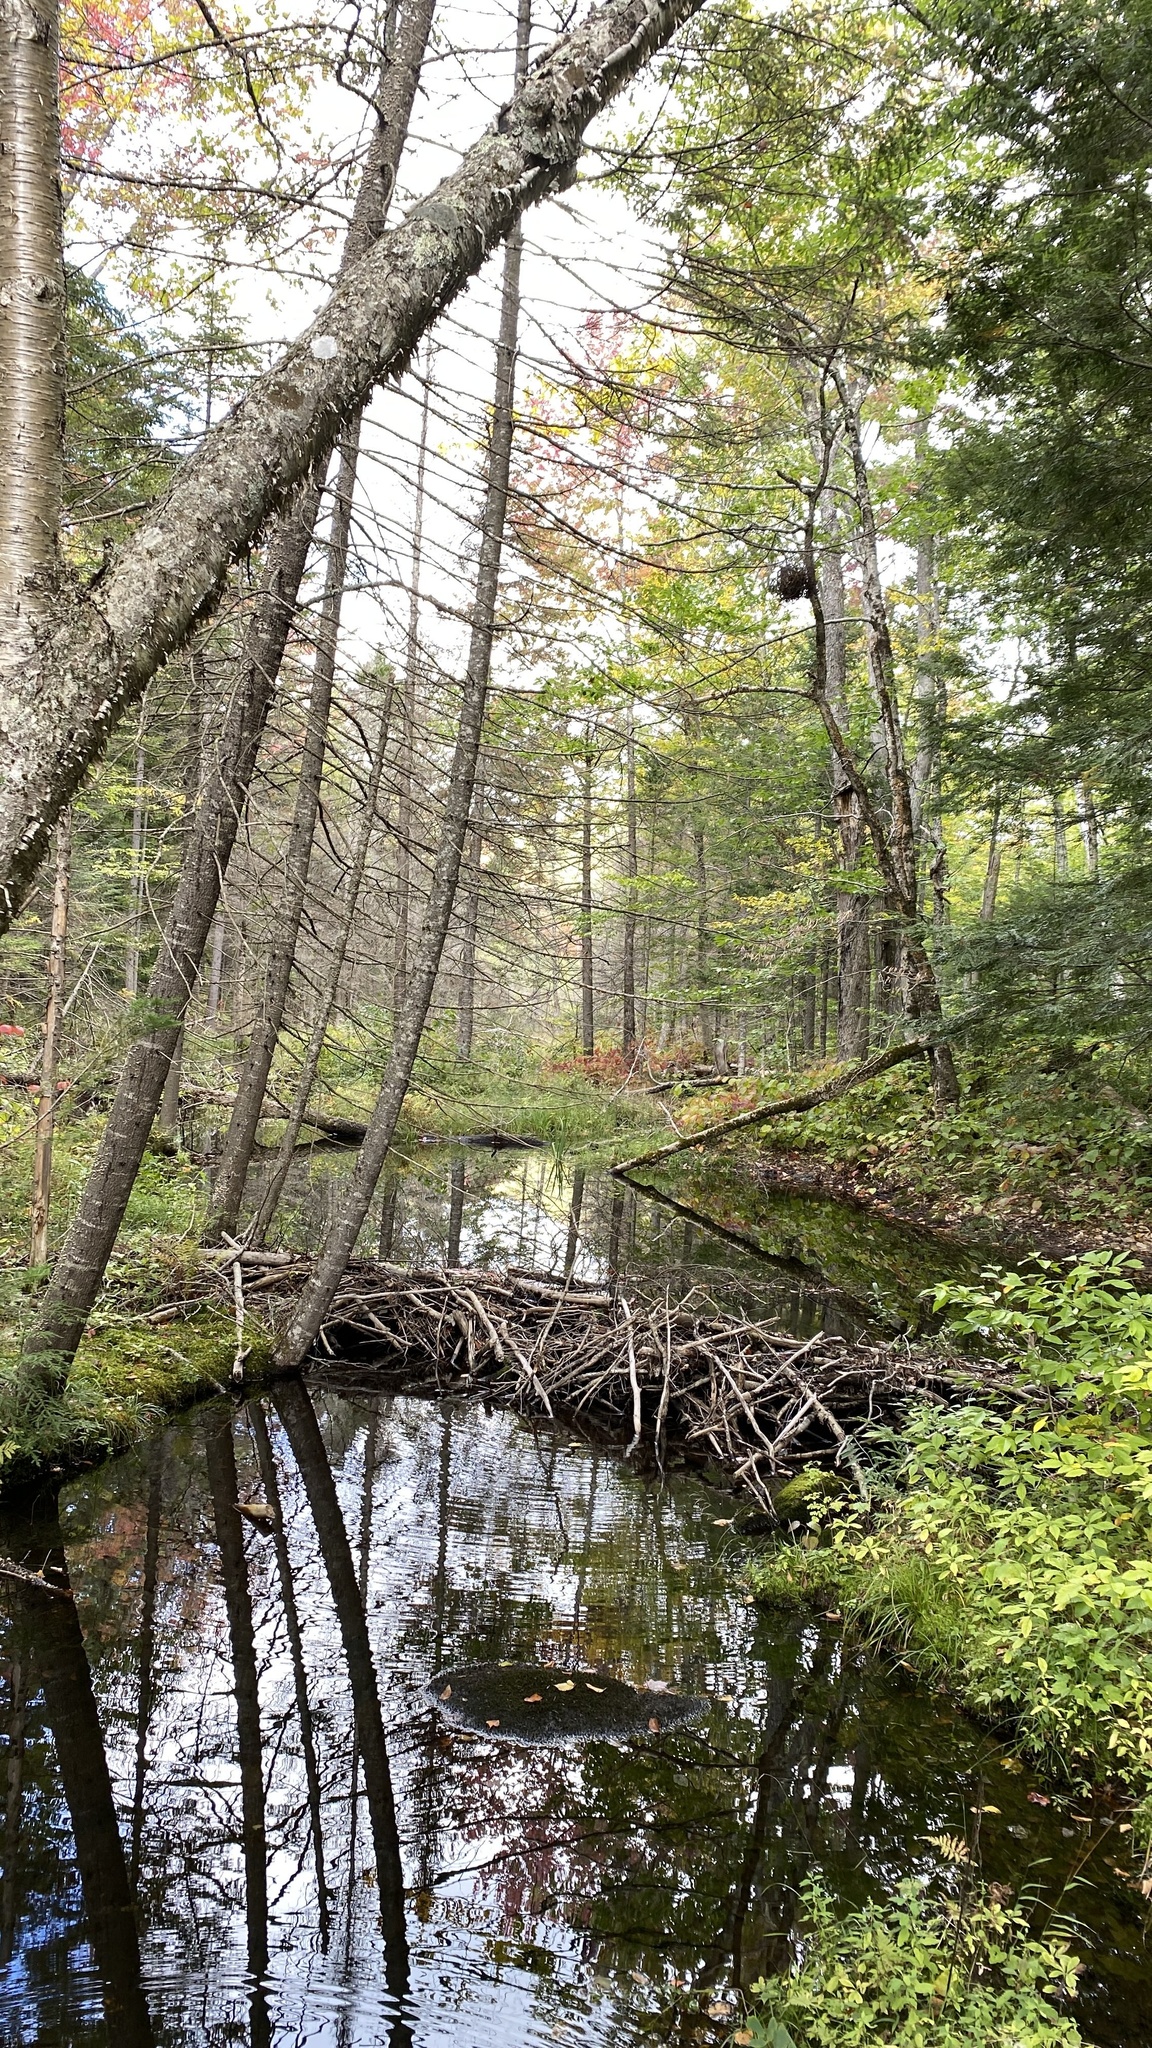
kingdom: Animalia
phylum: Chordata
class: Mammalia
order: Rodentia
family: Castoridae
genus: Castor
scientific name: Castor canadensis
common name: American beaver
